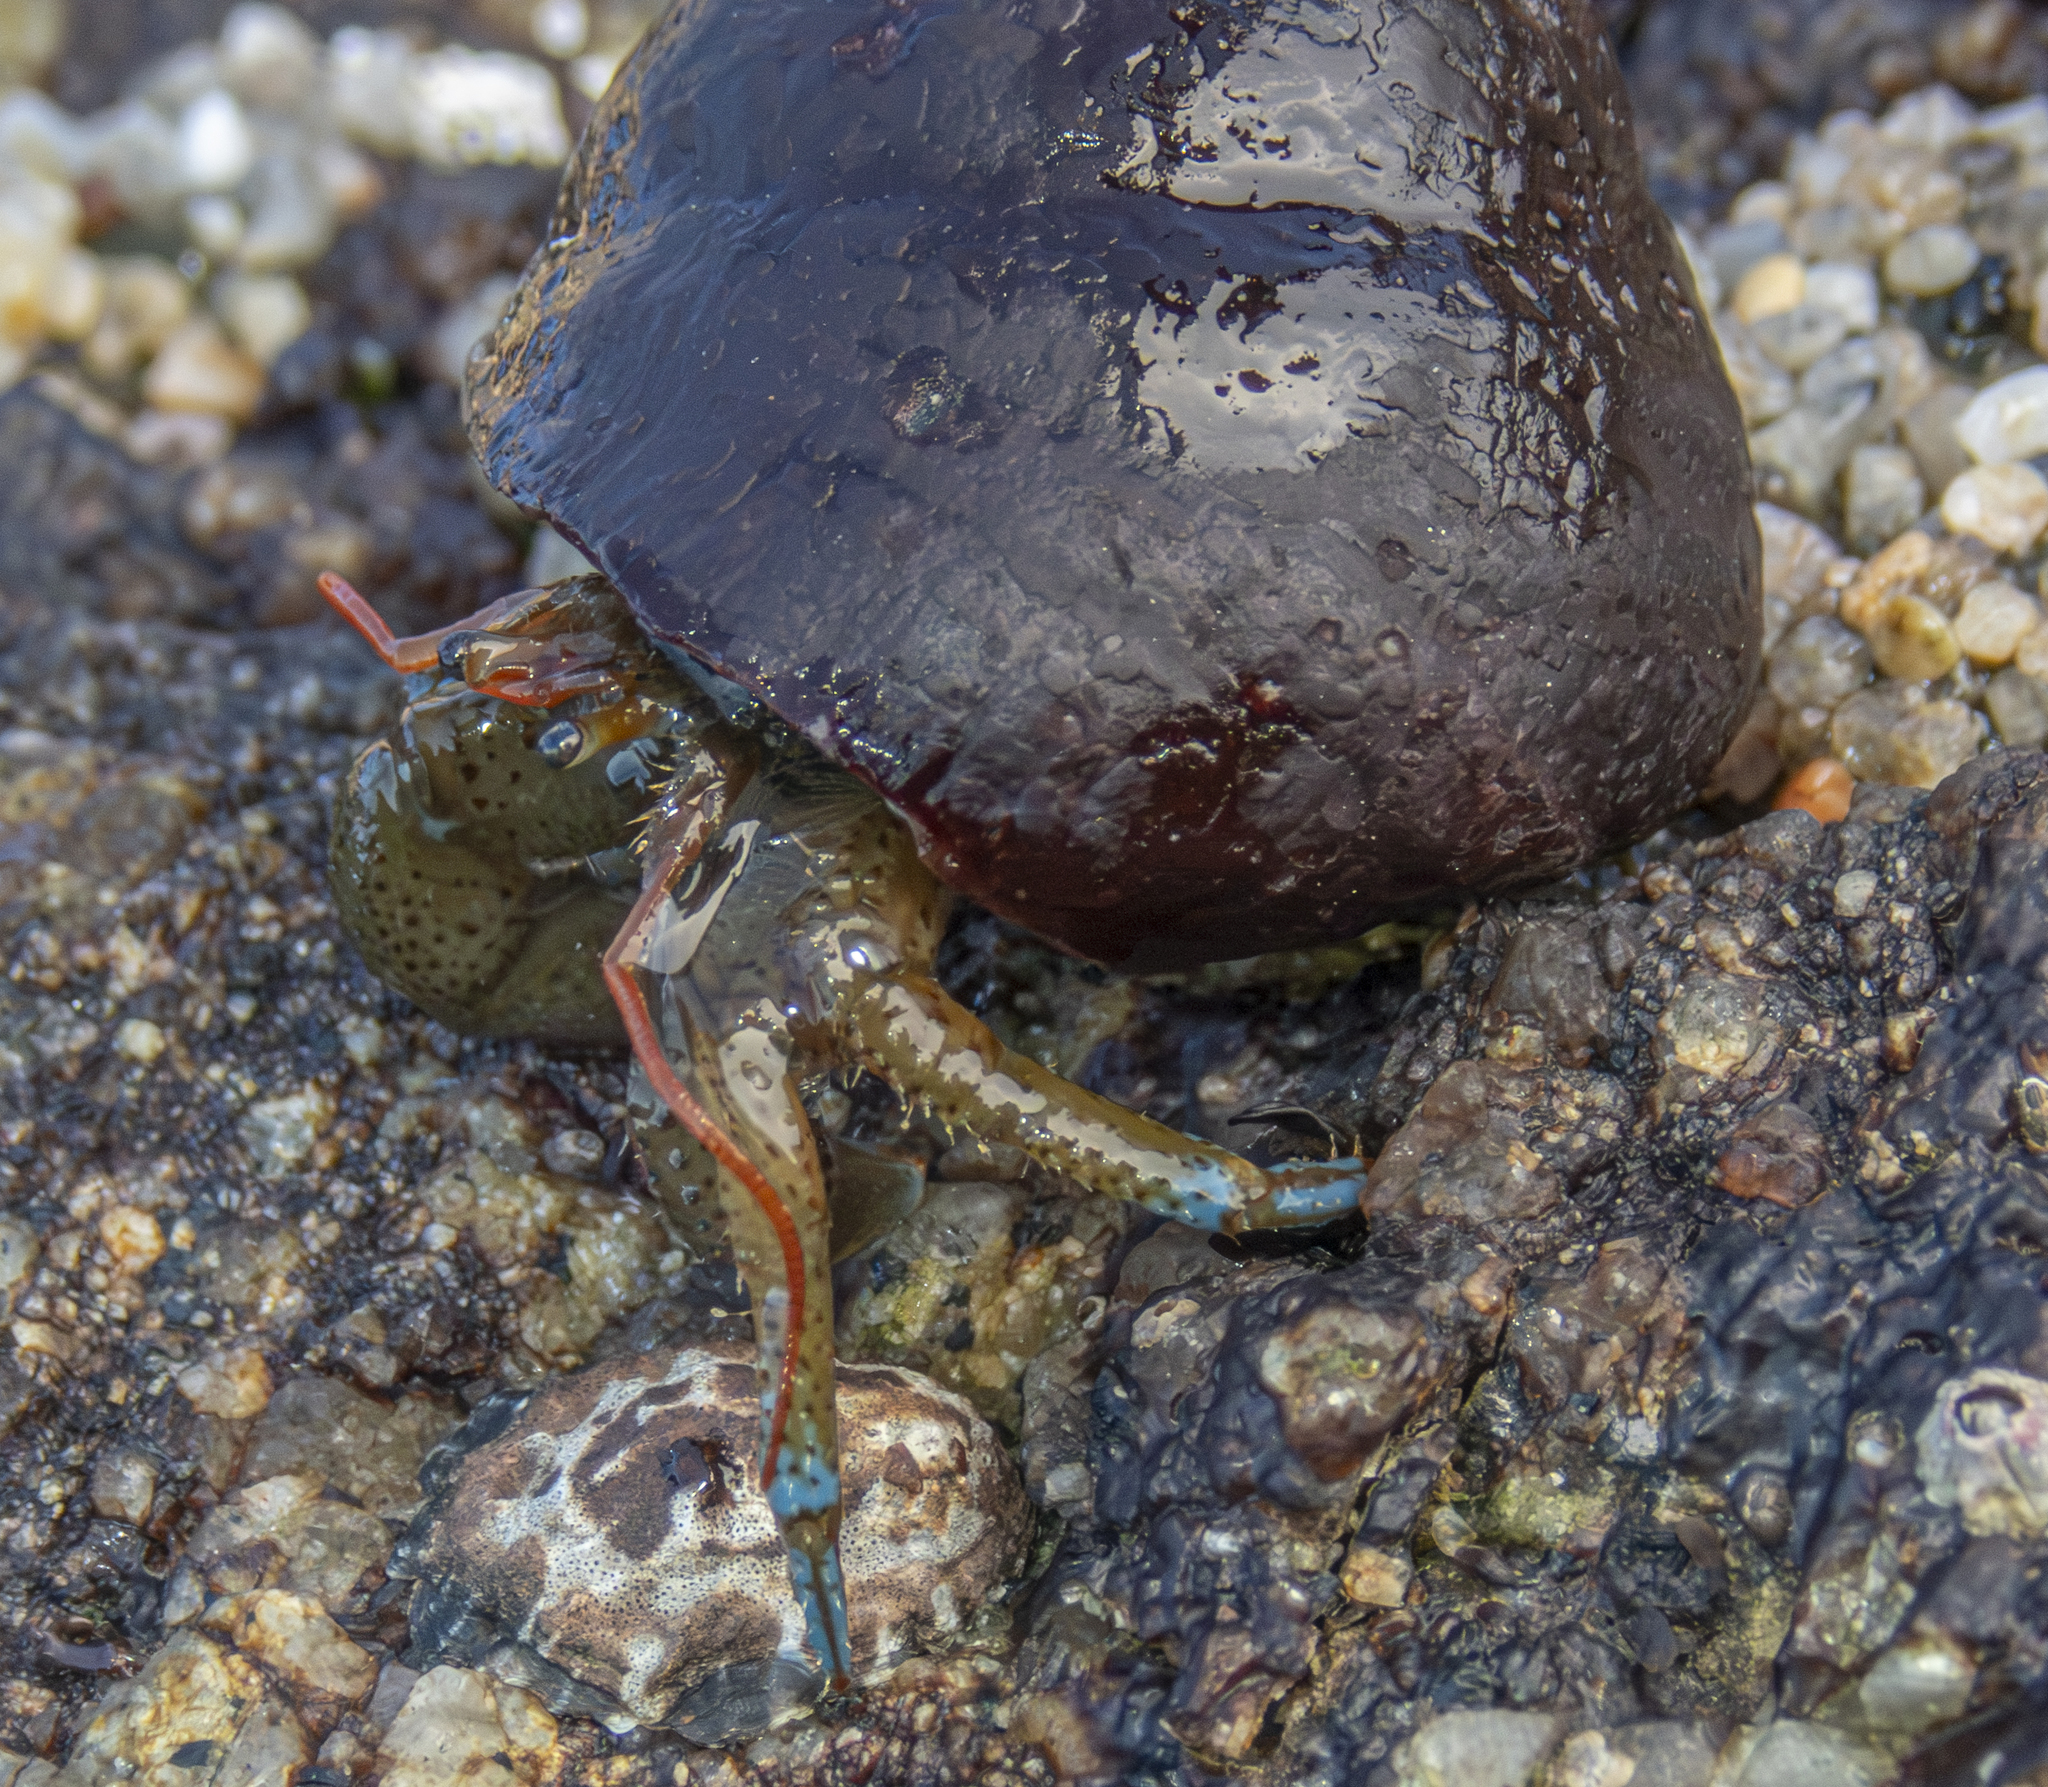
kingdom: Animalia
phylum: Arthropoda
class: Malacostraca
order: Decapoda
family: Paguridae
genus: Pagurus
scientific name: Pagurus samuelis
